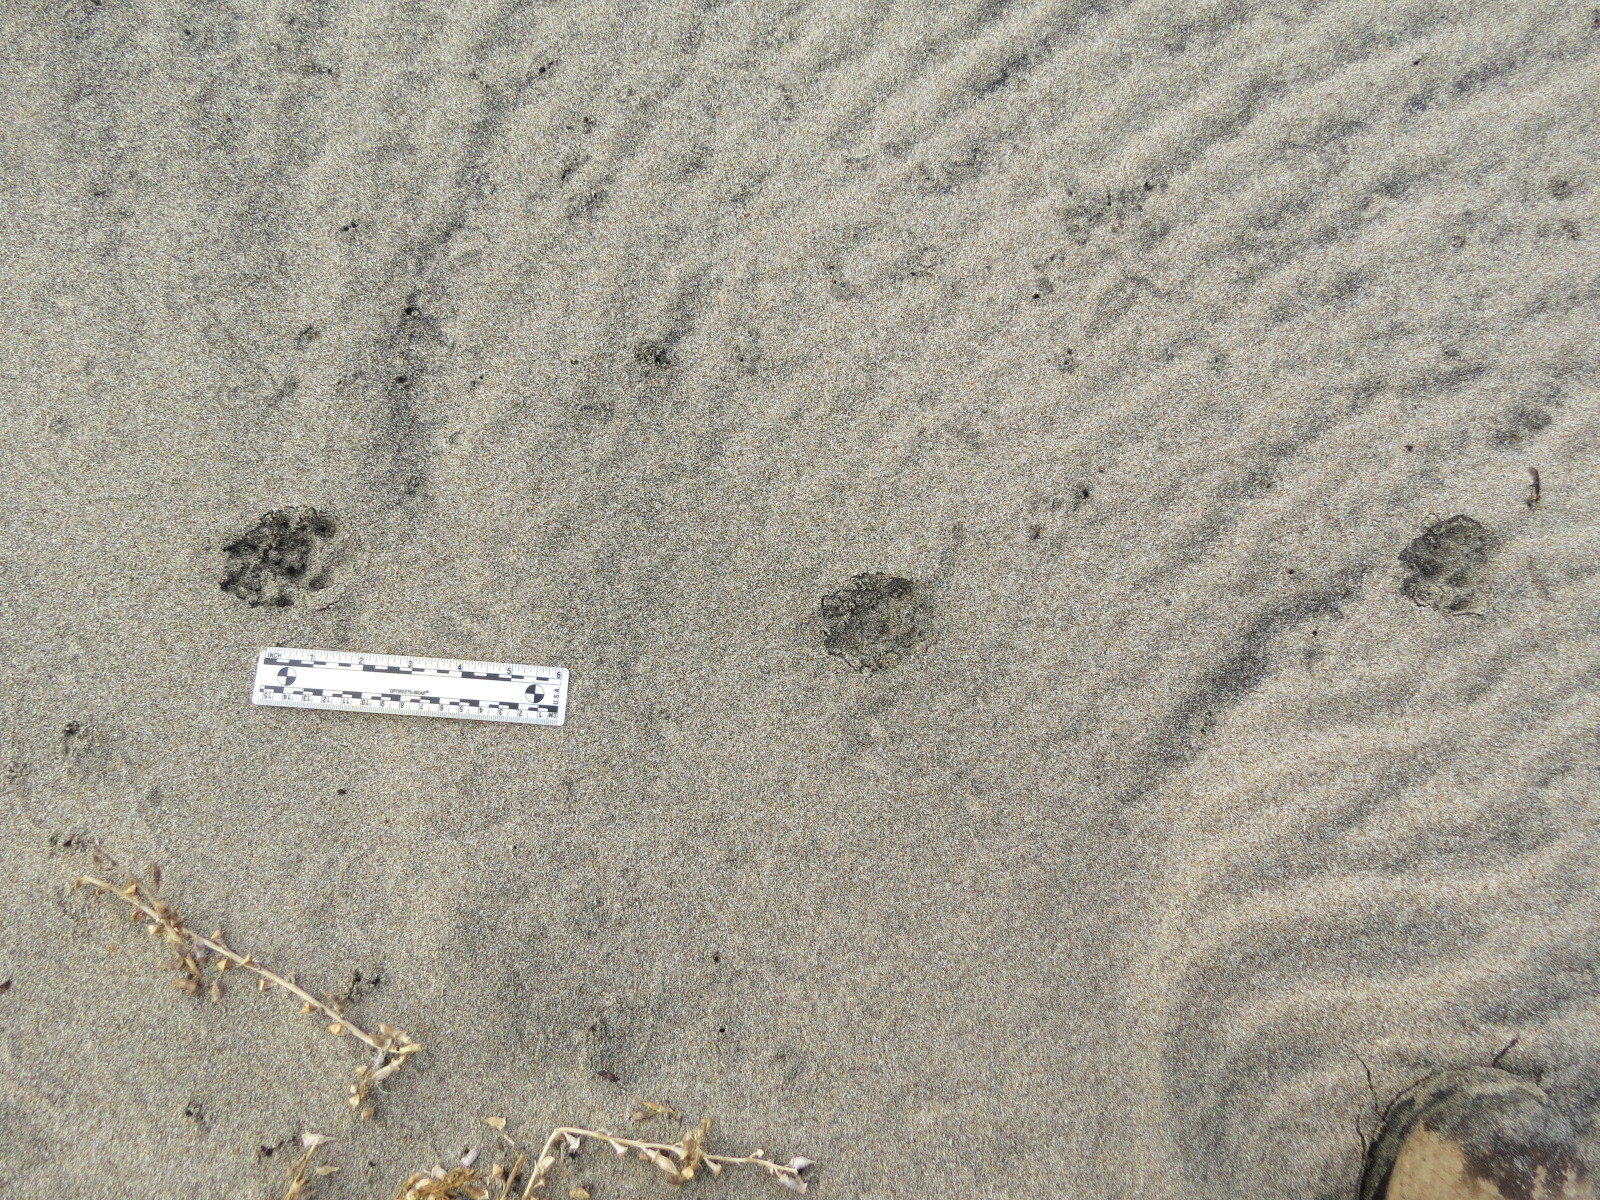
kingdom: Animalia
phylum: Chordata
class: Mammalia
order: Carnivora
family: Canidae
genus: Urocyon
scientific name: Urocyon cinereoargenteus
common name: Gray fox
